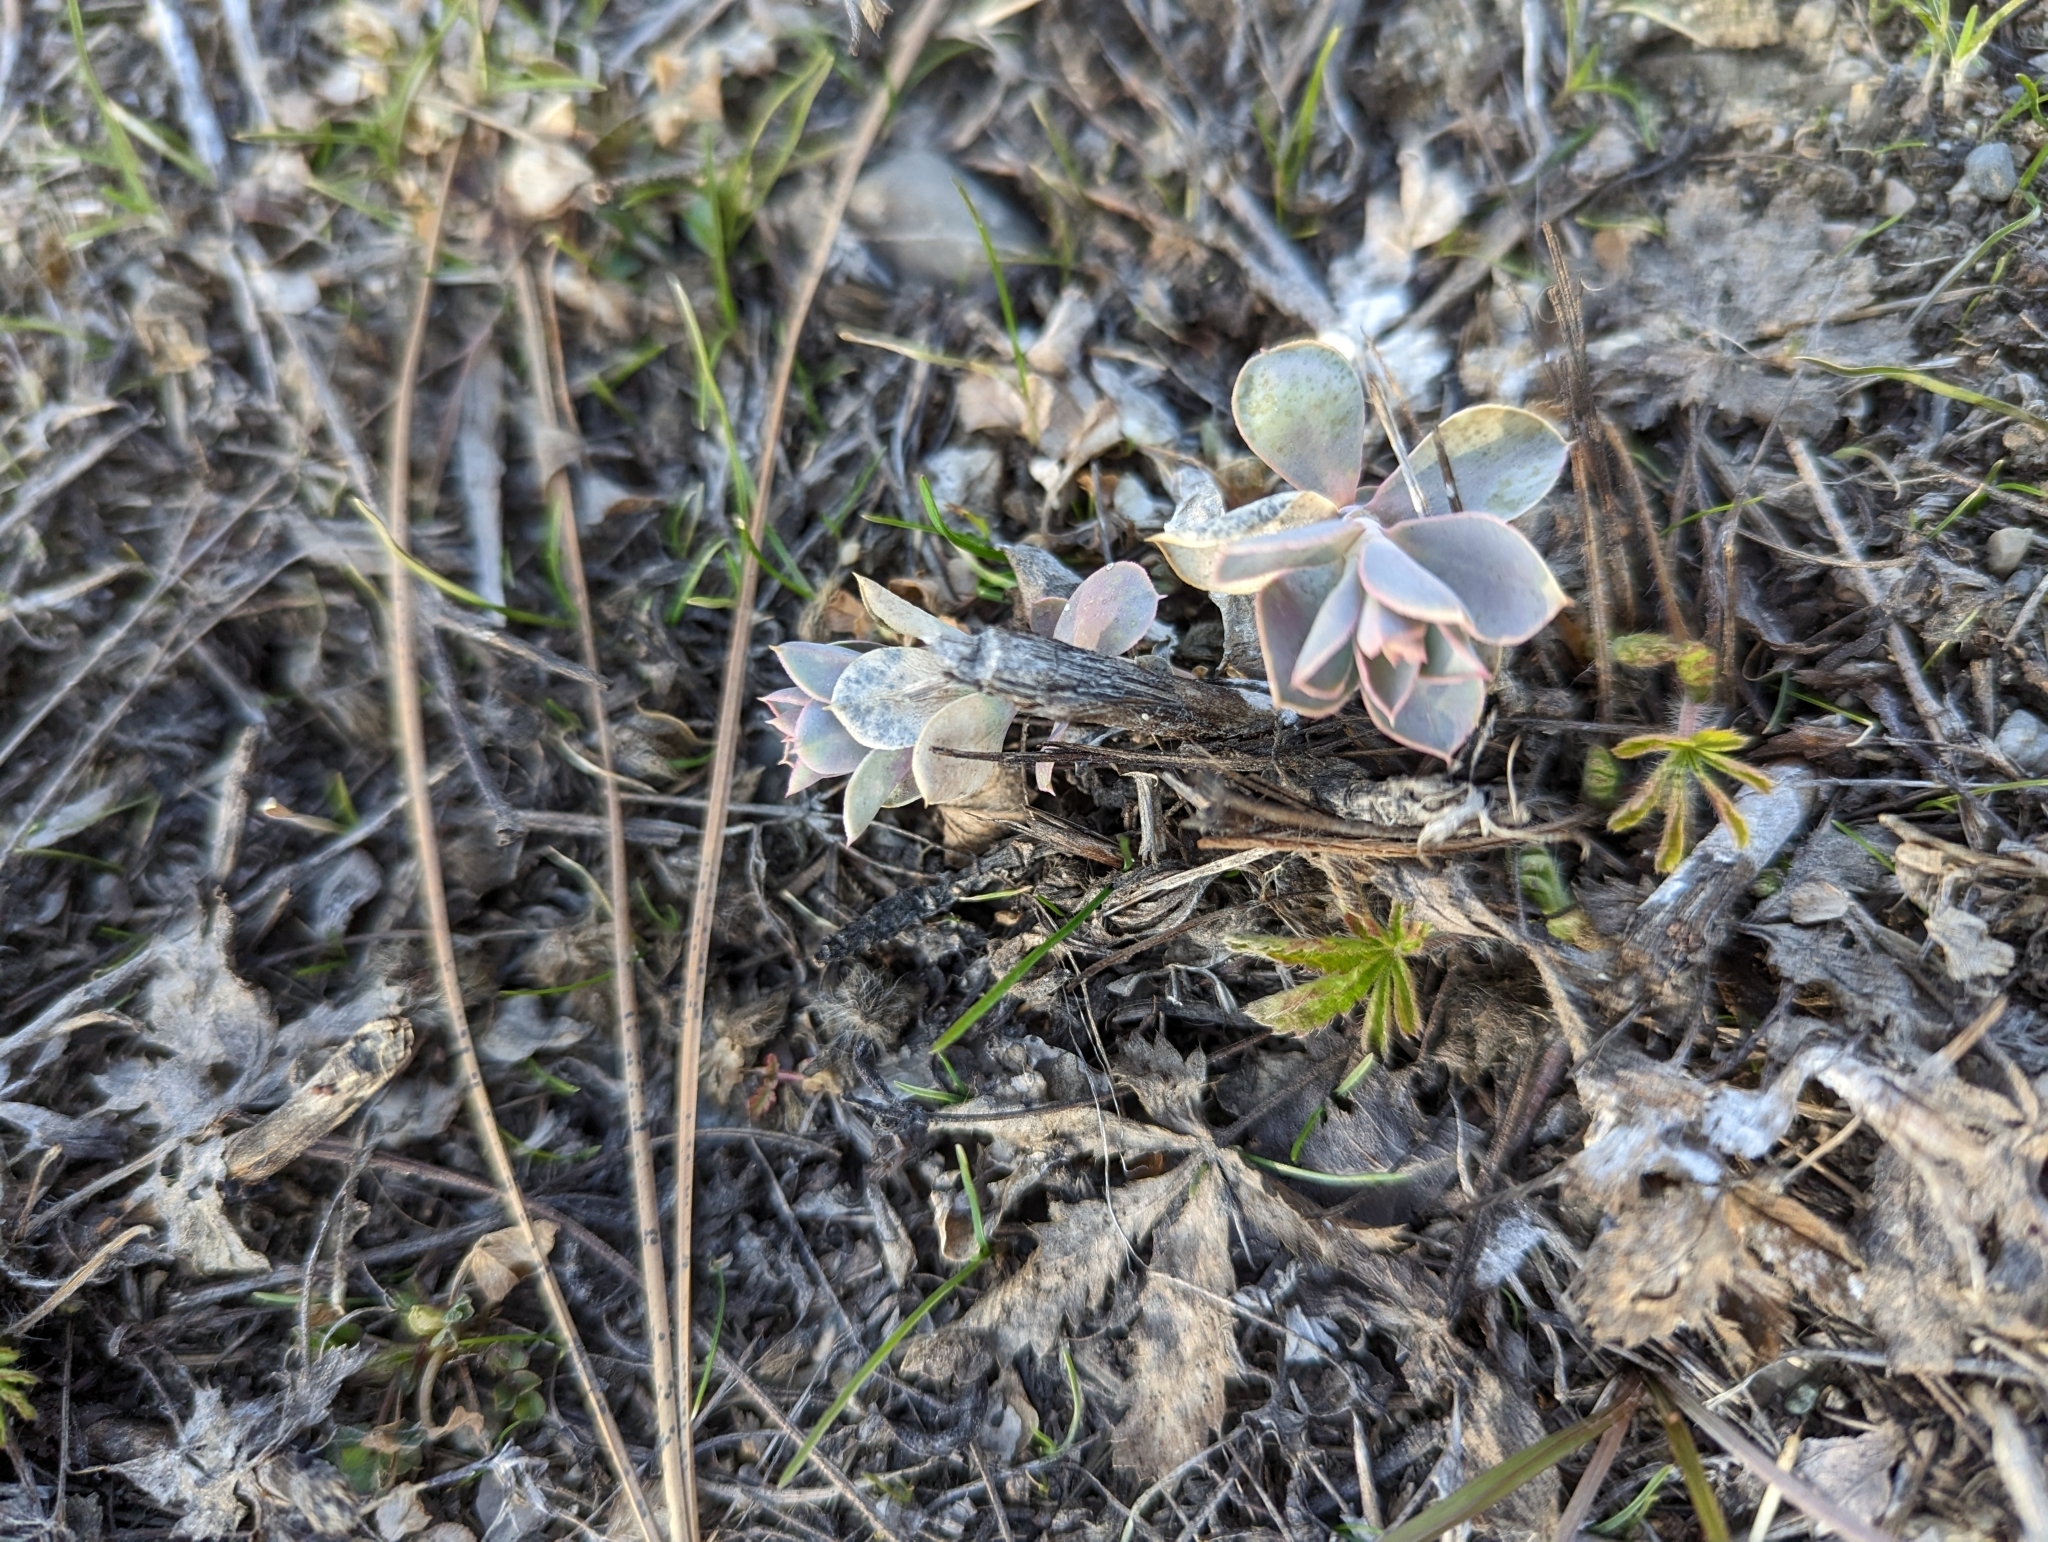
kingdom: Plantae
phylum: Tracheophyta
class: Magnoliopsida
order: Malpighiales
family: Euphorbiaceae
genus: Euphorbia
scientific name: Euphorbia myrsinites
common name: Myrtle spurge
